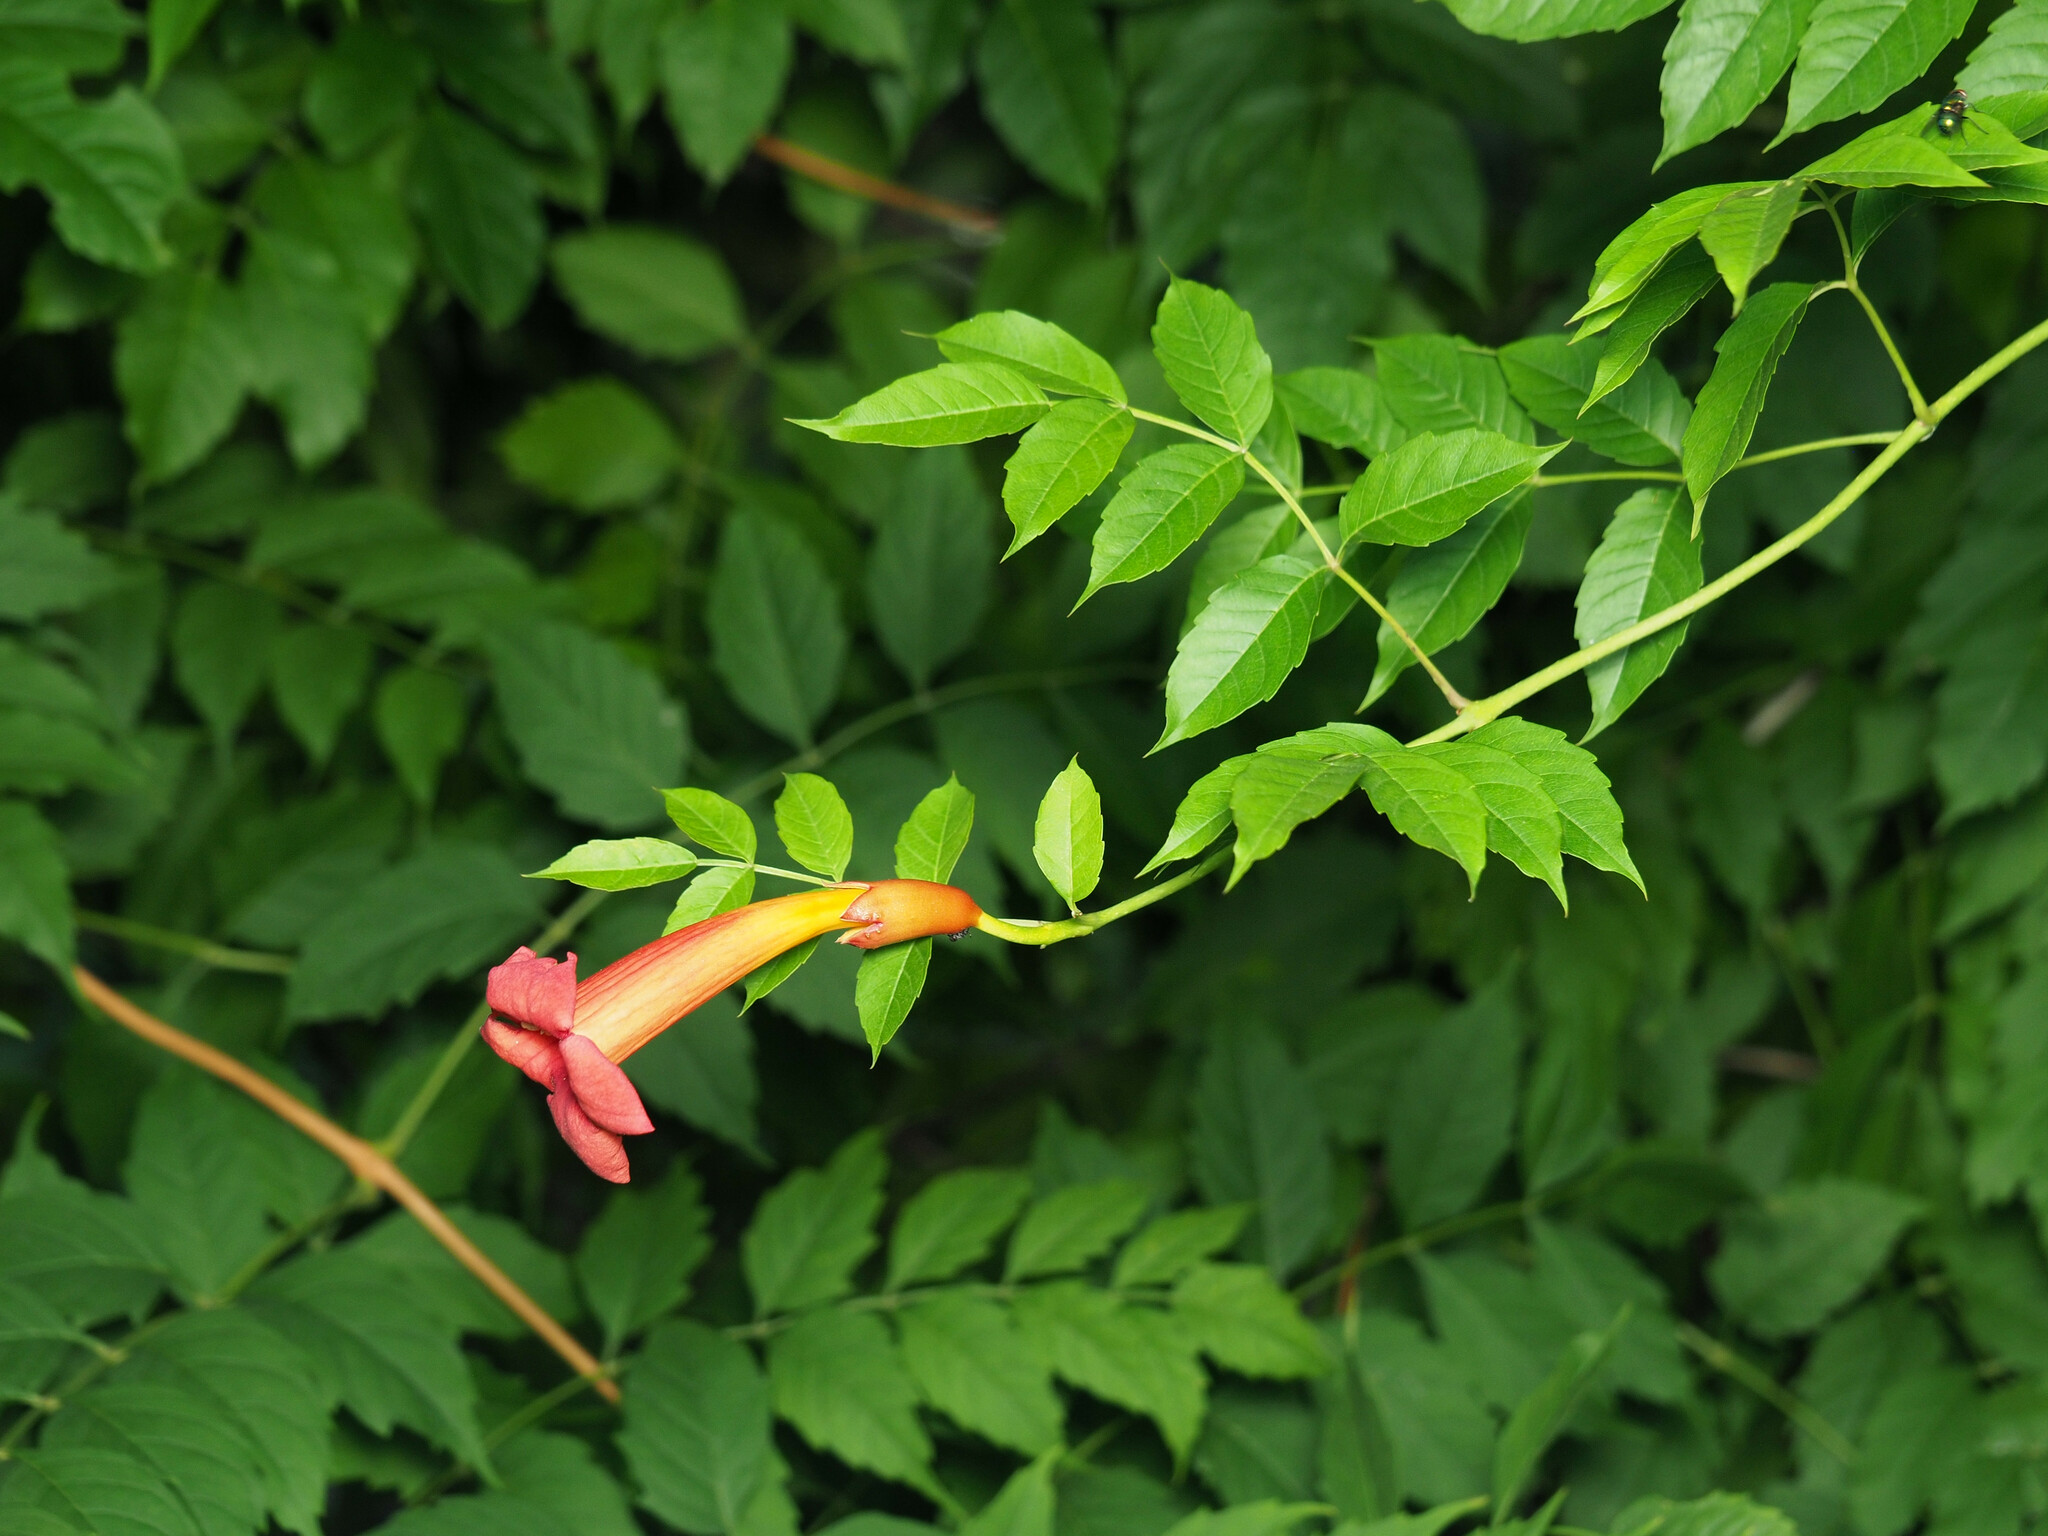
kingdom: Plantae
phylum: Tracheophyta
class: Magnoliopsida
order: Lamiales
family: Bignoniaceae
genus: Campsis
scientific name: Campsis radicans
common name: Trumpet-creeper
